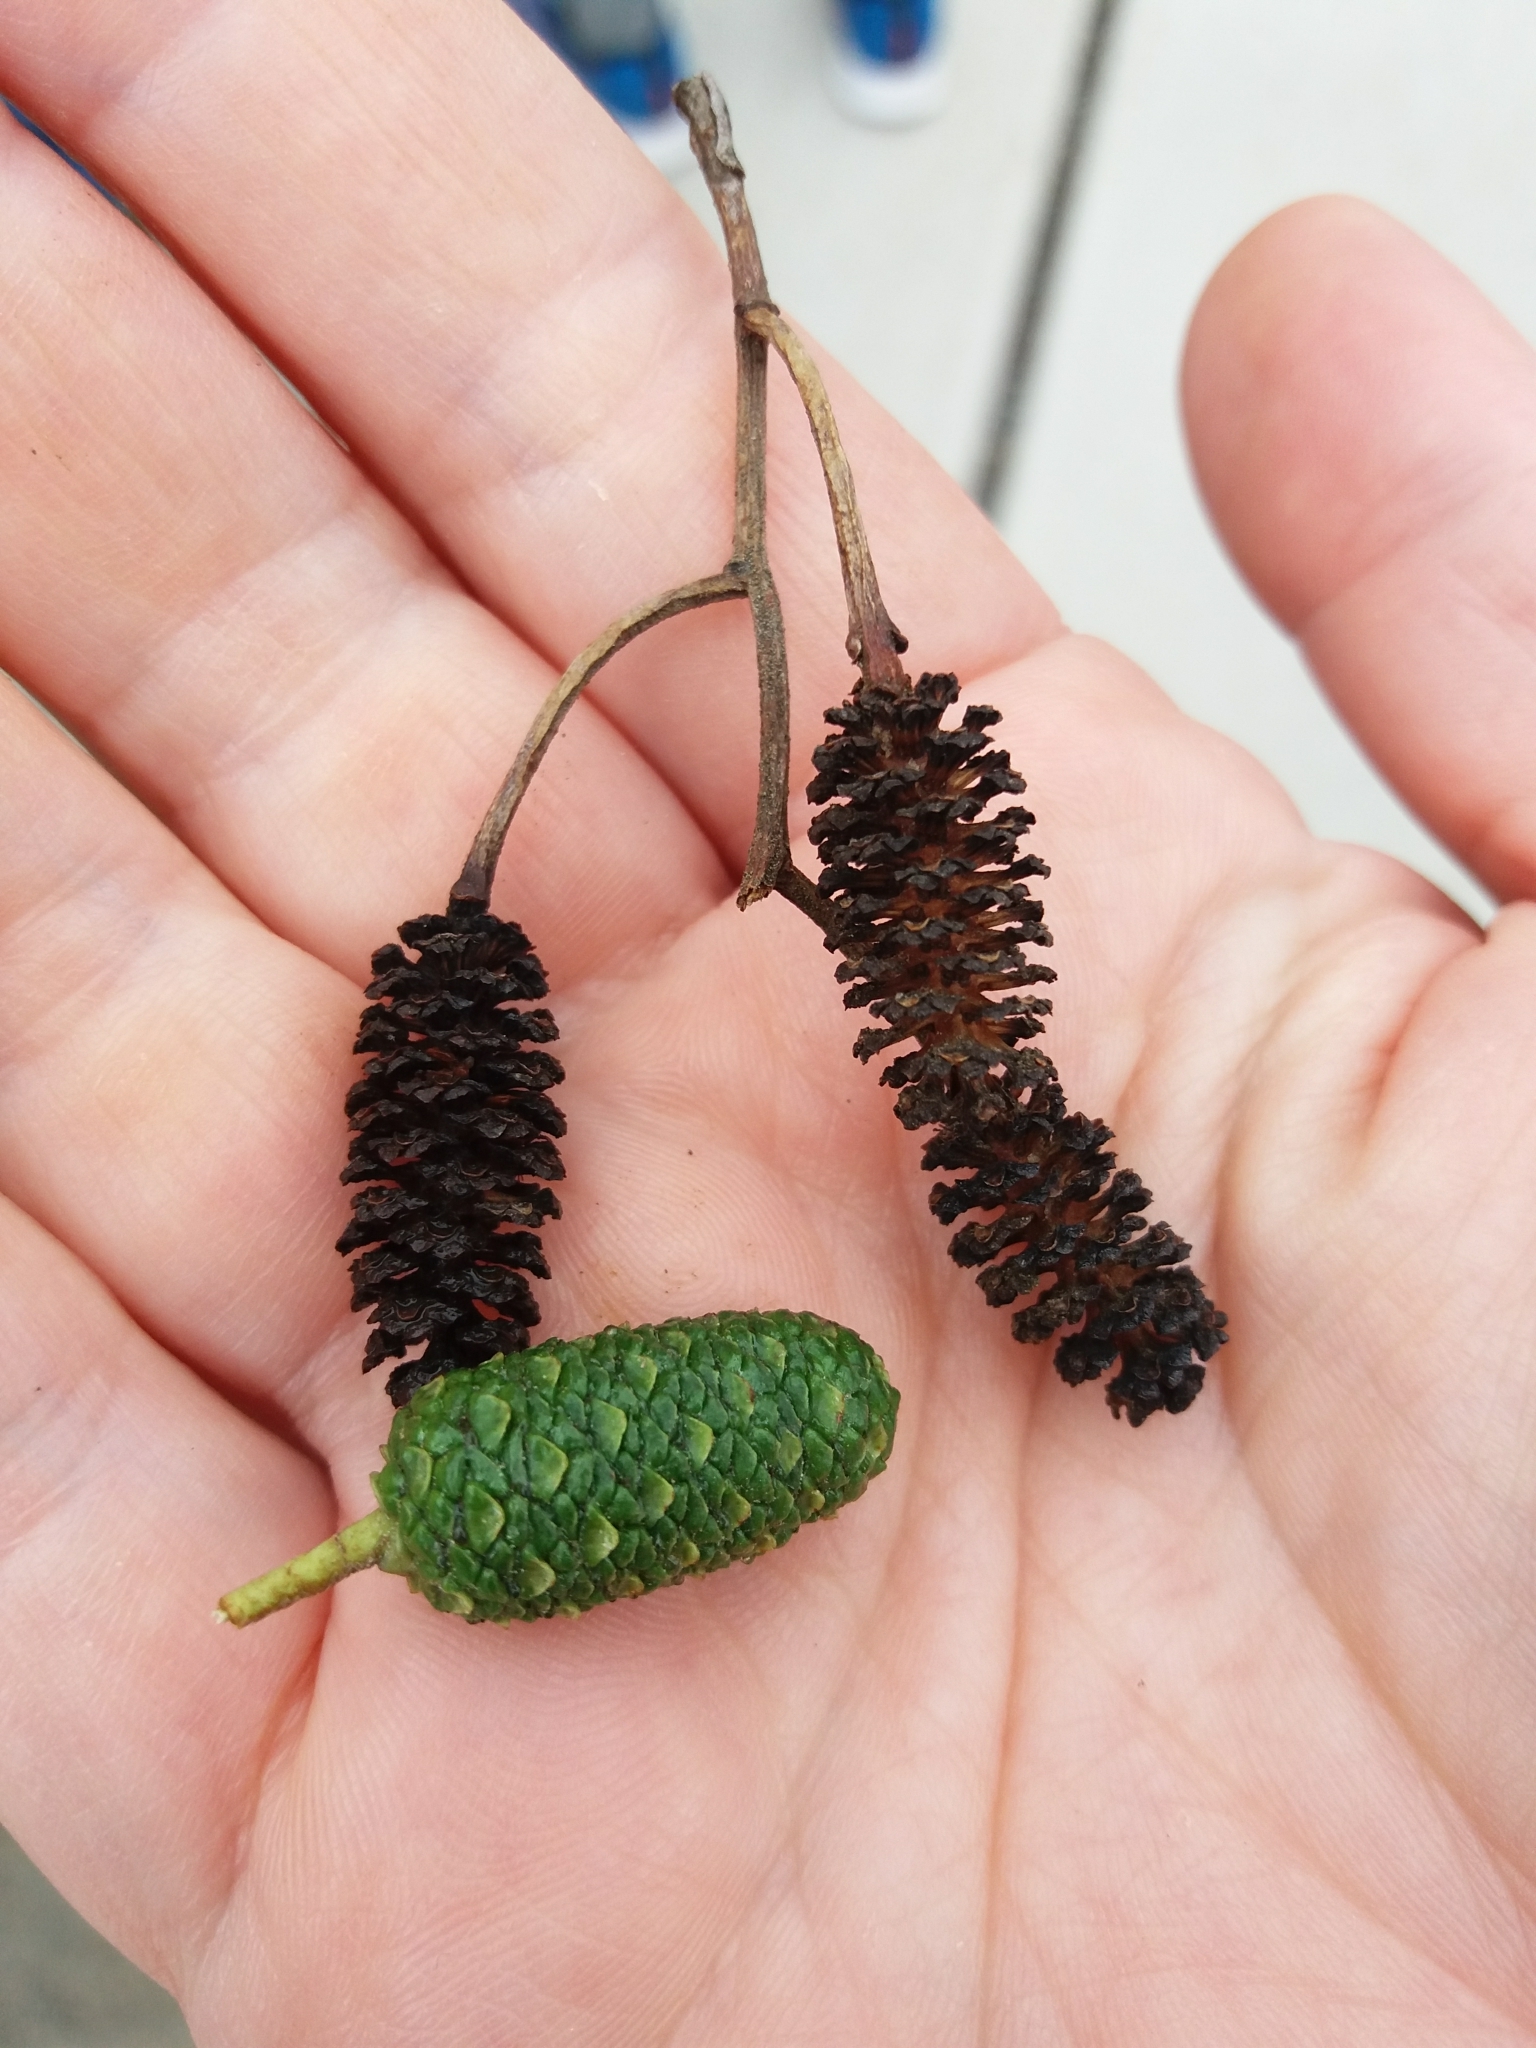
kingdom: Plantae
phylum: Tracheophyta
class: Magnoliopsida
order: Fagales
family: Betulaceae
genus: Alnus
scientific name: Alnus glutinosa
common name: Black alder
